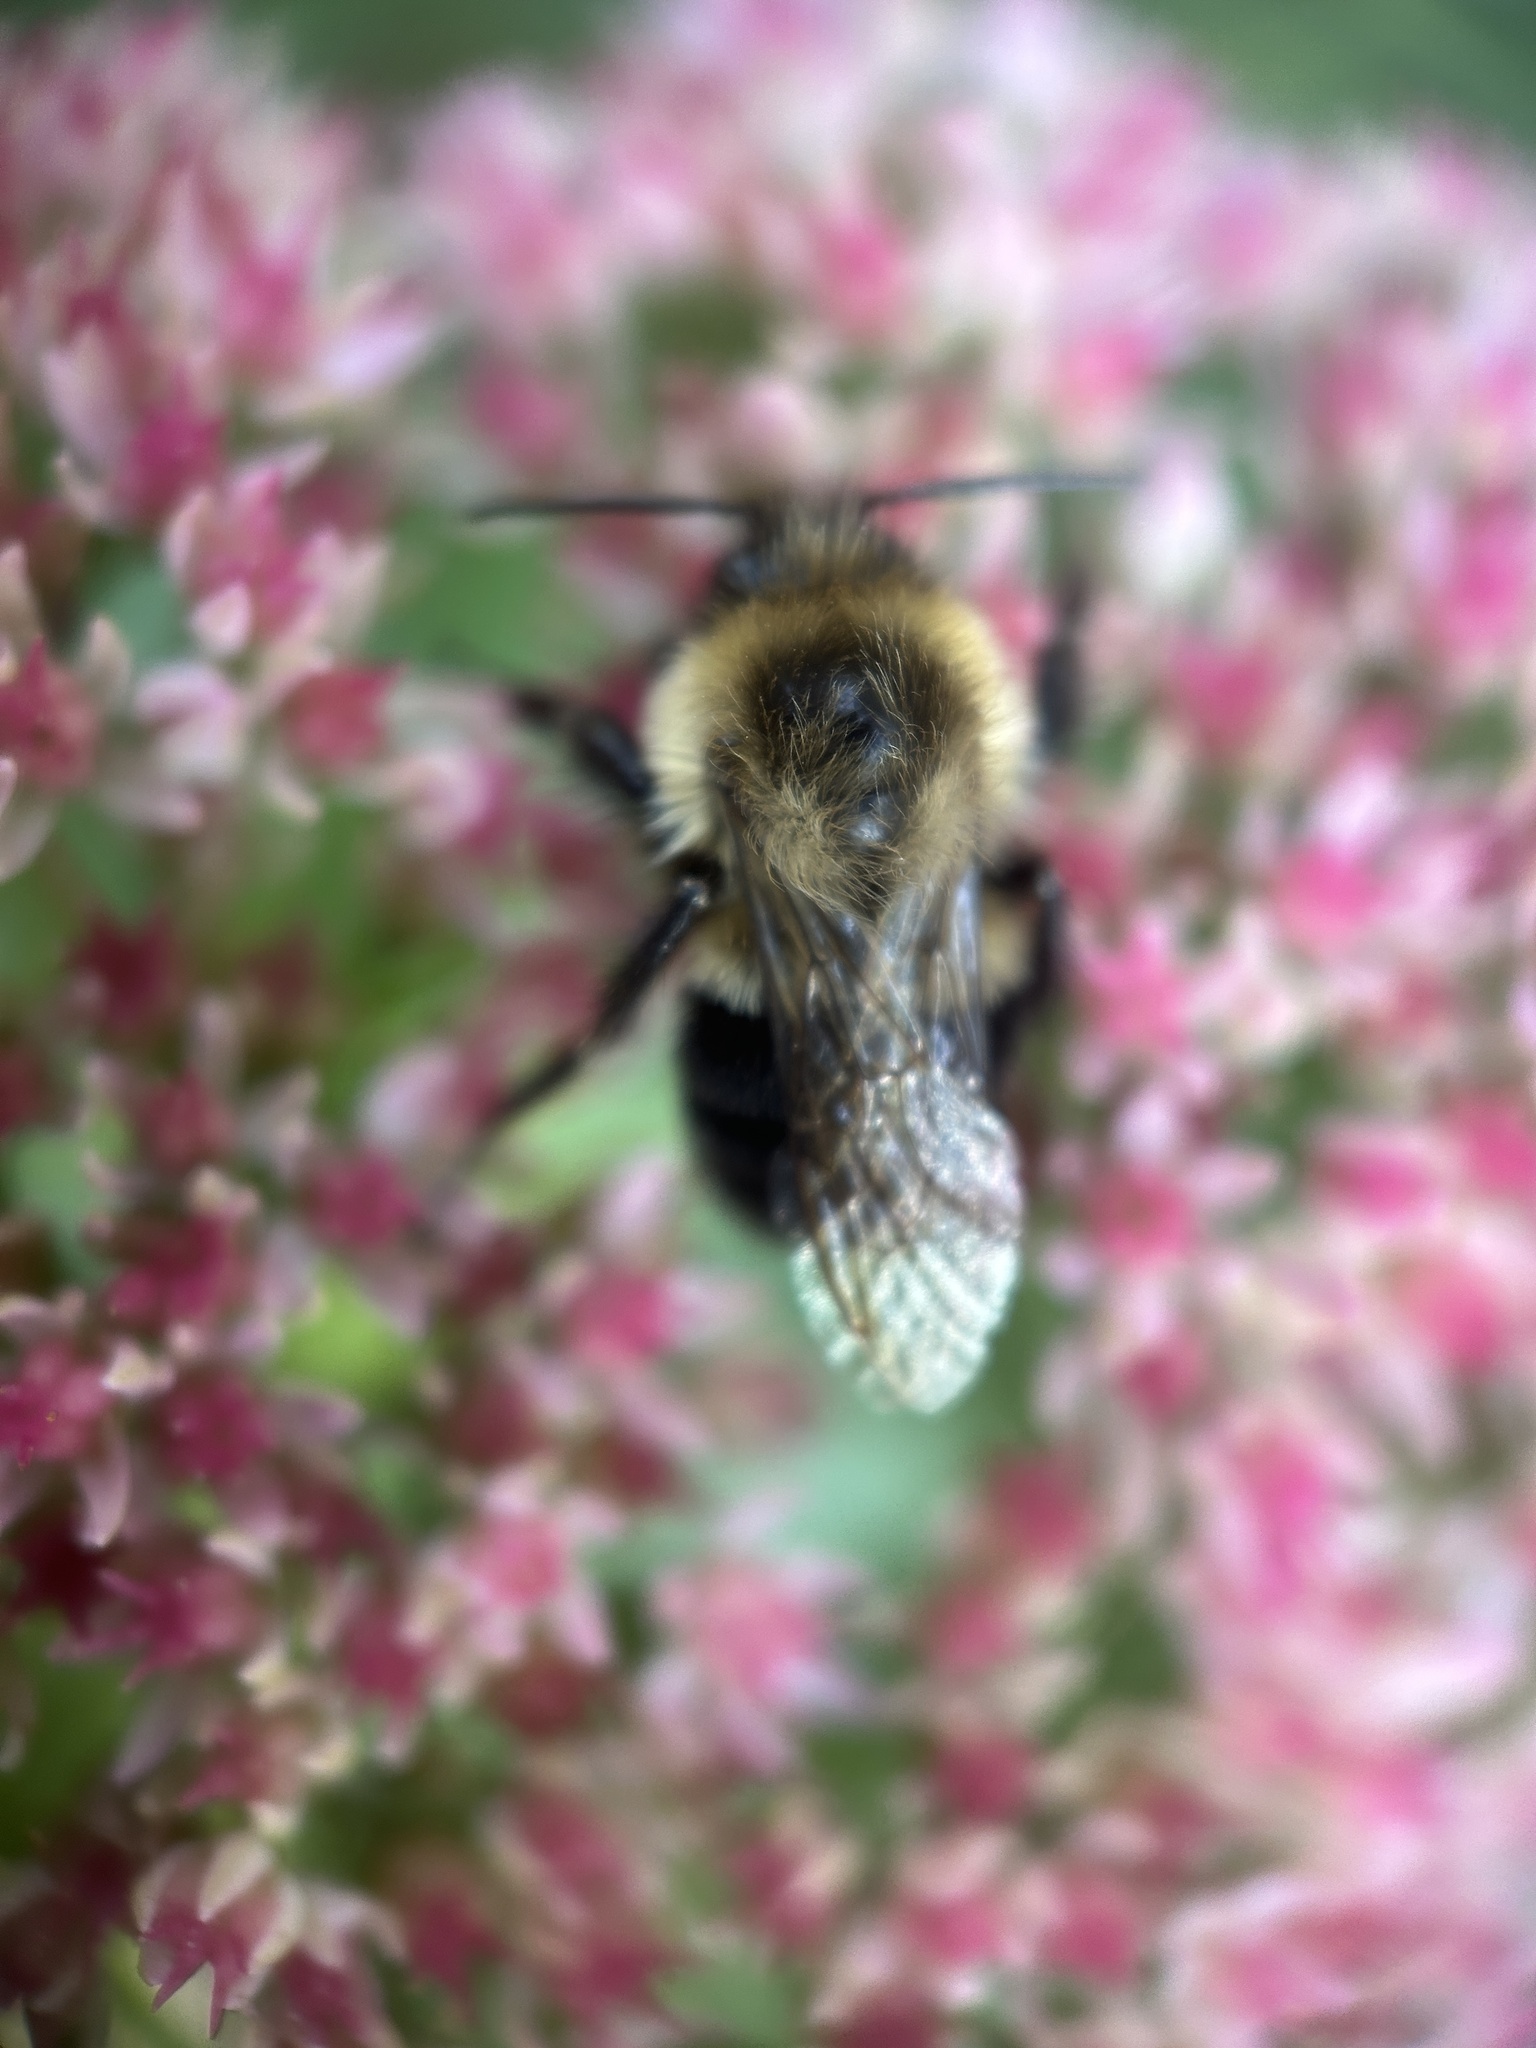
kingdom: Animalia
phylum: Arthropoda
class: Insecta
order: Hymenoptera
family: Apidae
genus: Bombus
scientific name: Bombus impatiens
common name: Common eastern bumble bee
